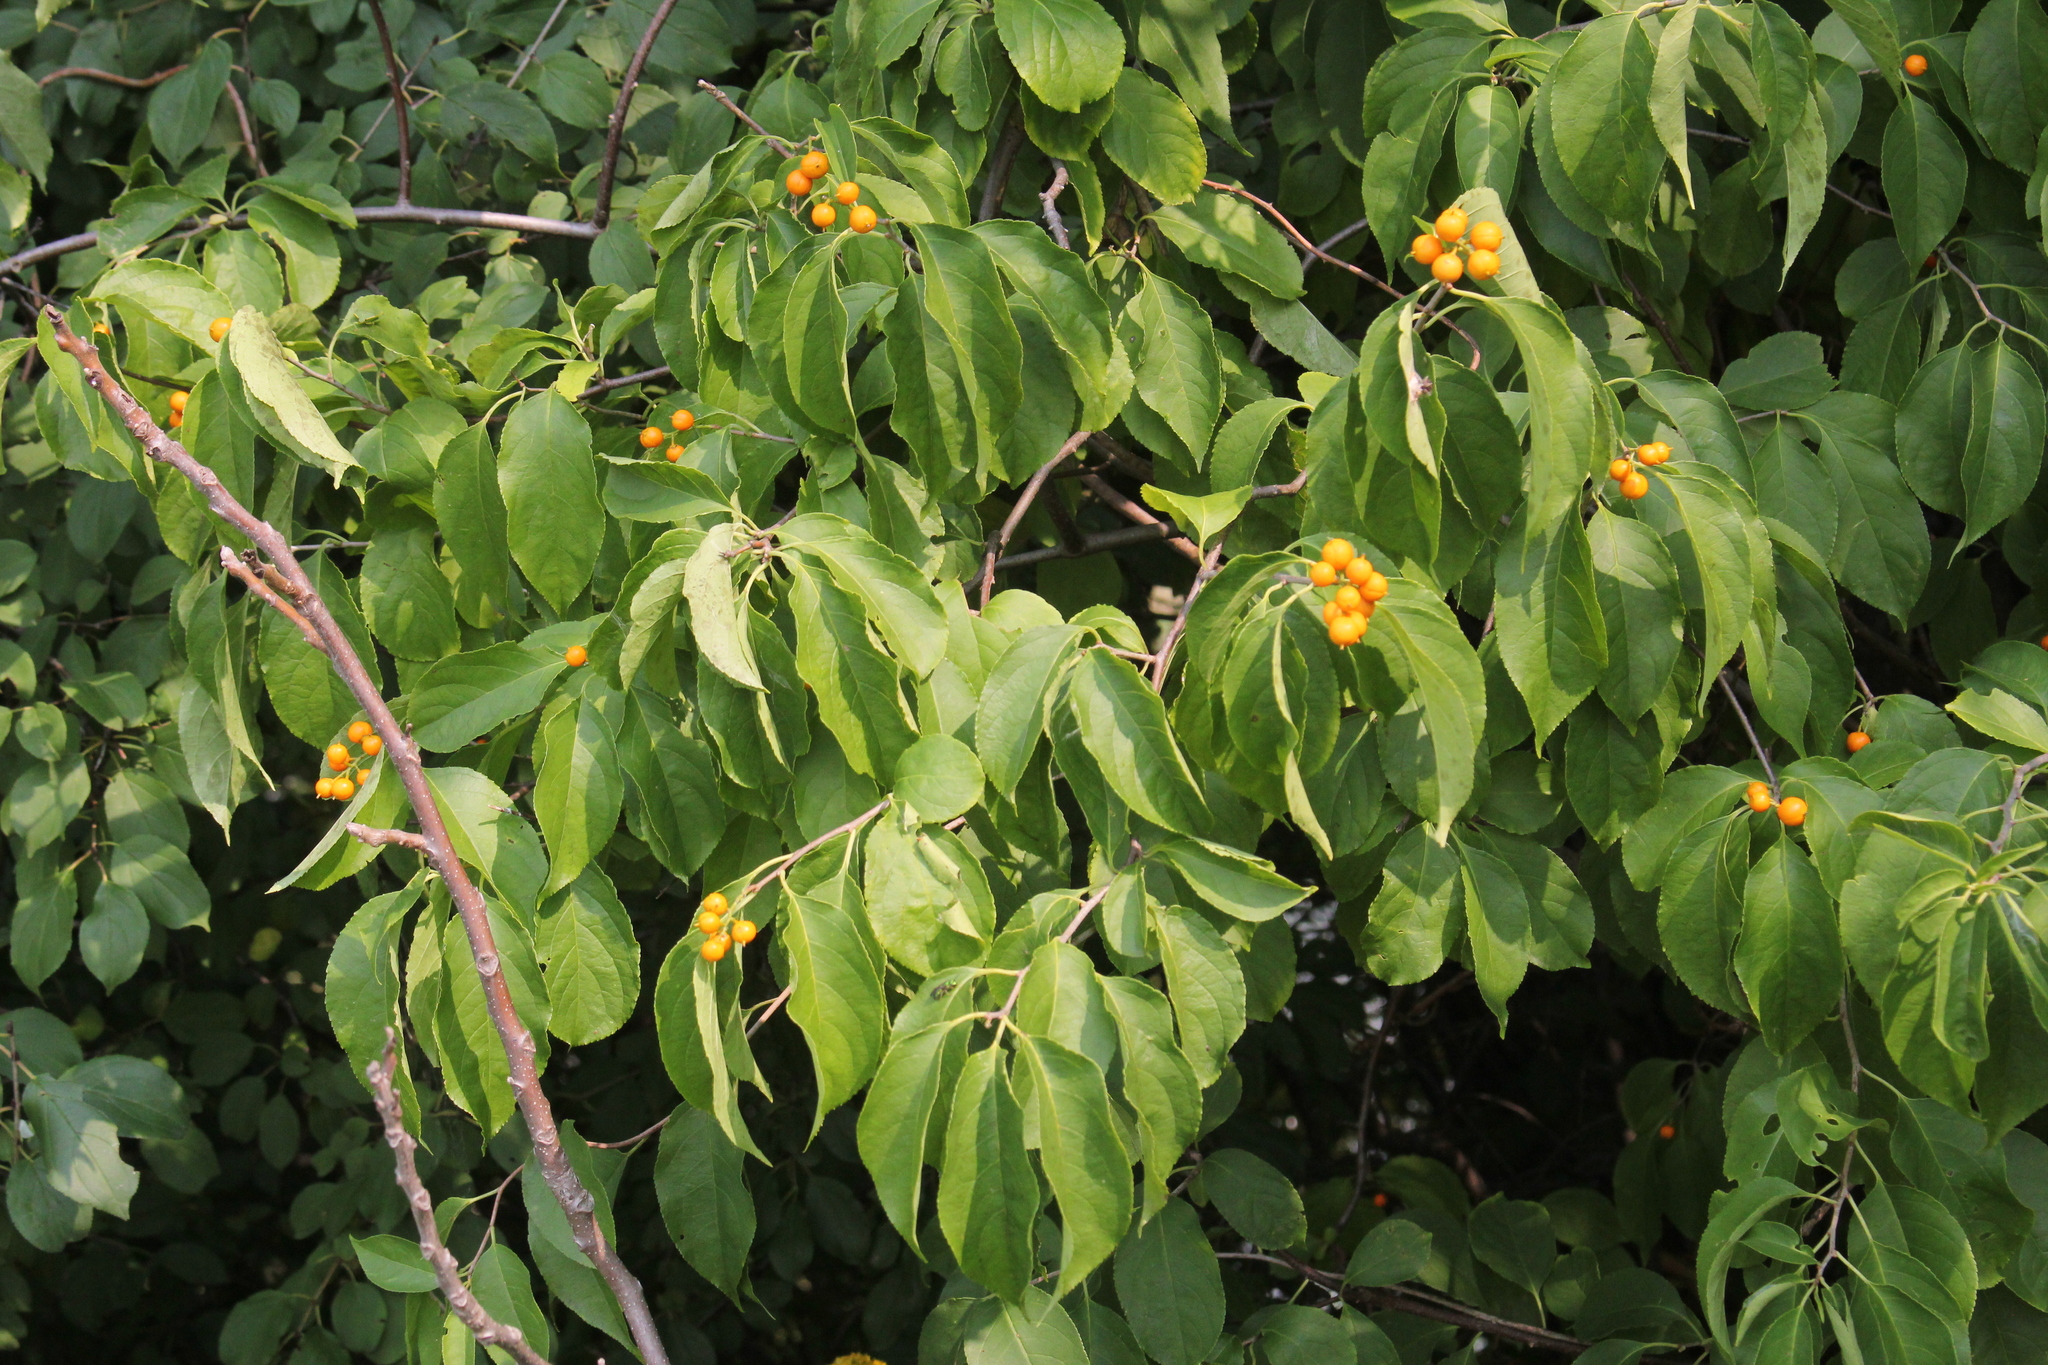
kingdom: Plantae
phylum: Tracheophyta
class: Magnoliopsida
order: Celastrales
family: Celastraceae
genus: Celastrus
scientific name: Celastrus scandens
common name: American bittersweet
